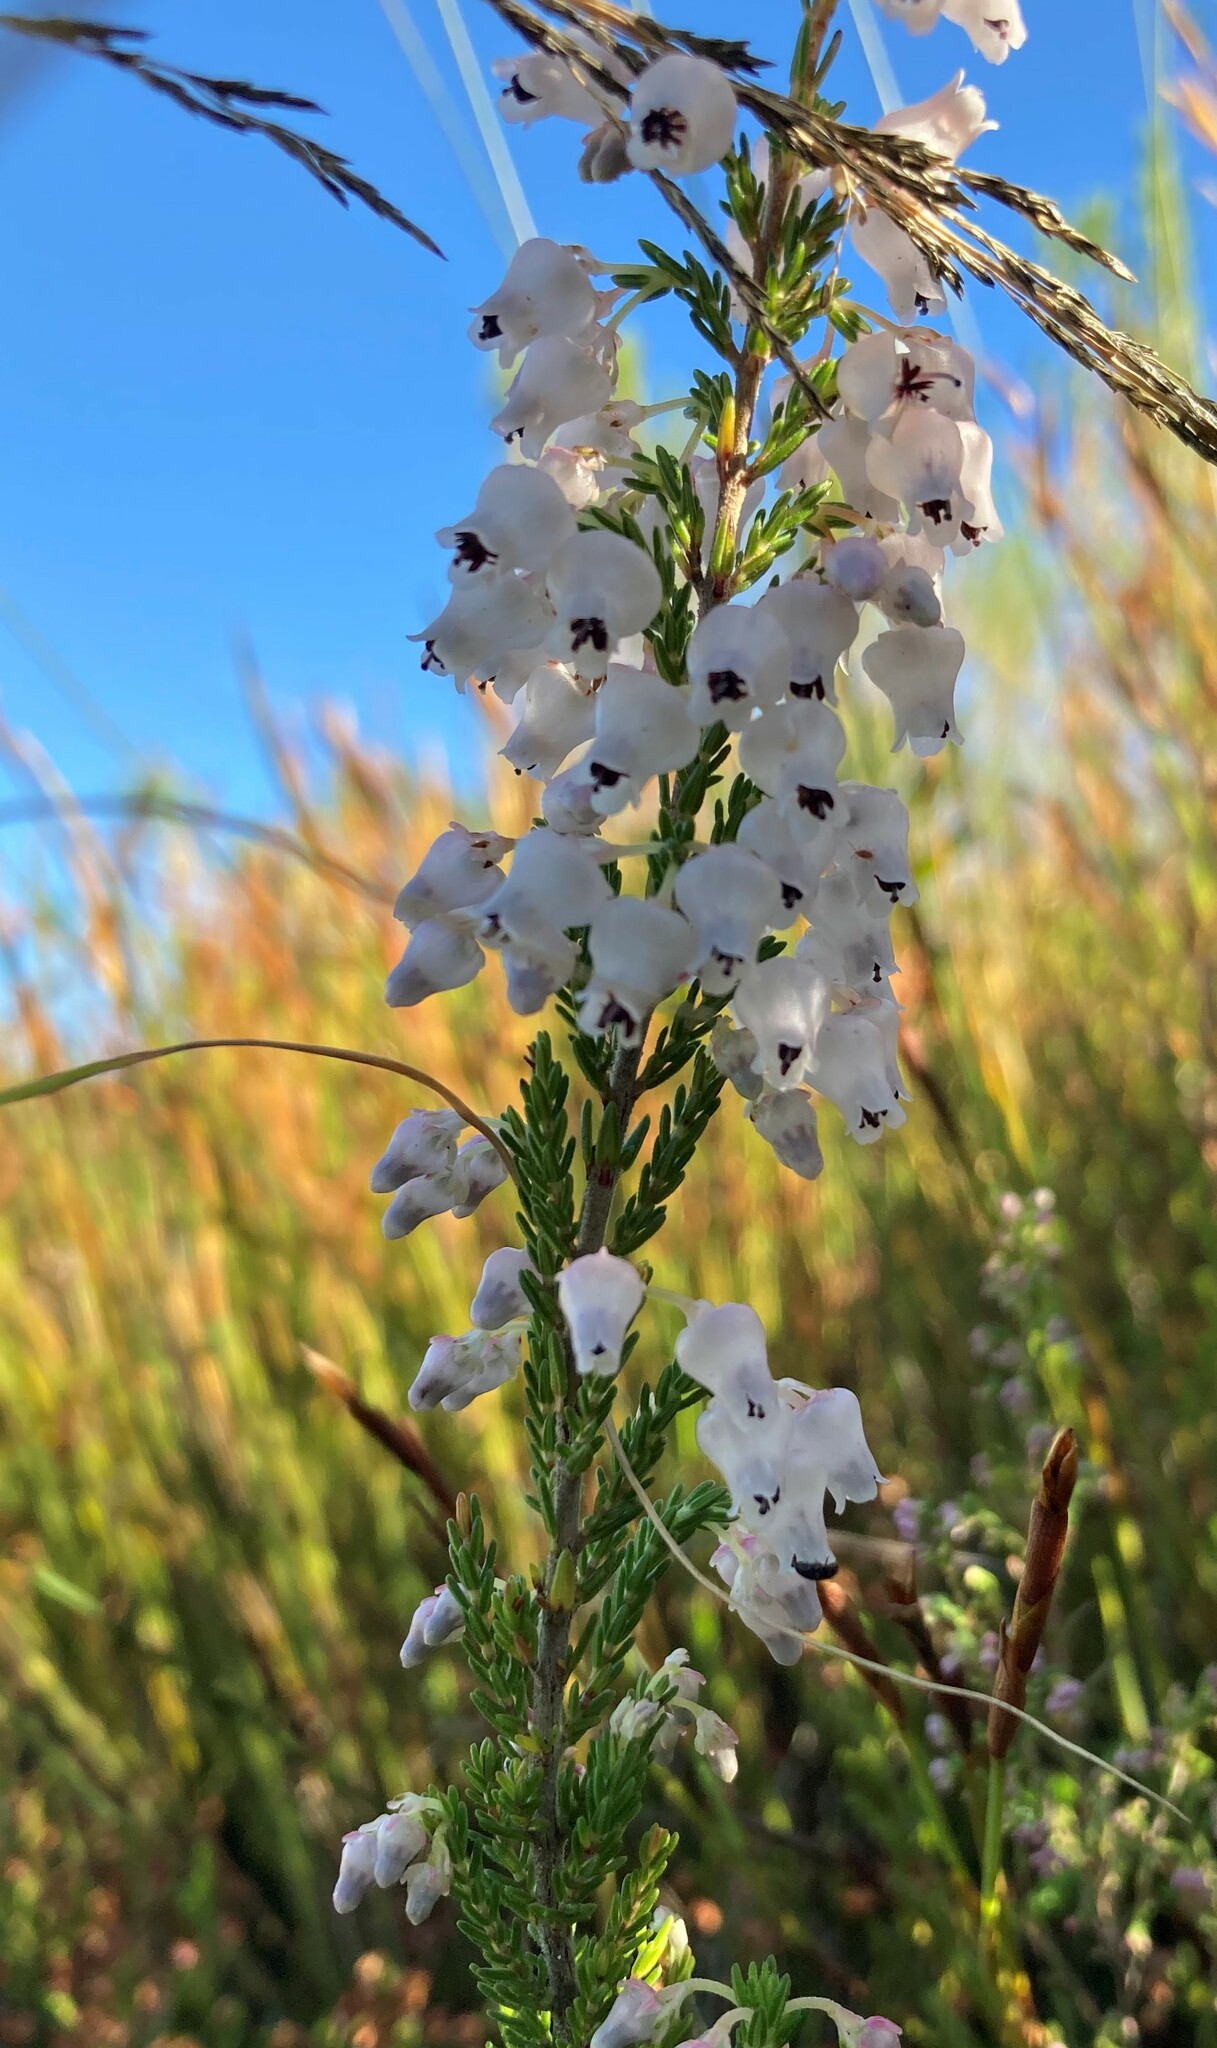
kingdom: Plantae
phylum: Tracheophyta
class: Magnoliopsida
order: Ericales
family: Ericaceae
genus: Erica
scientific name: Erica glomiflora
